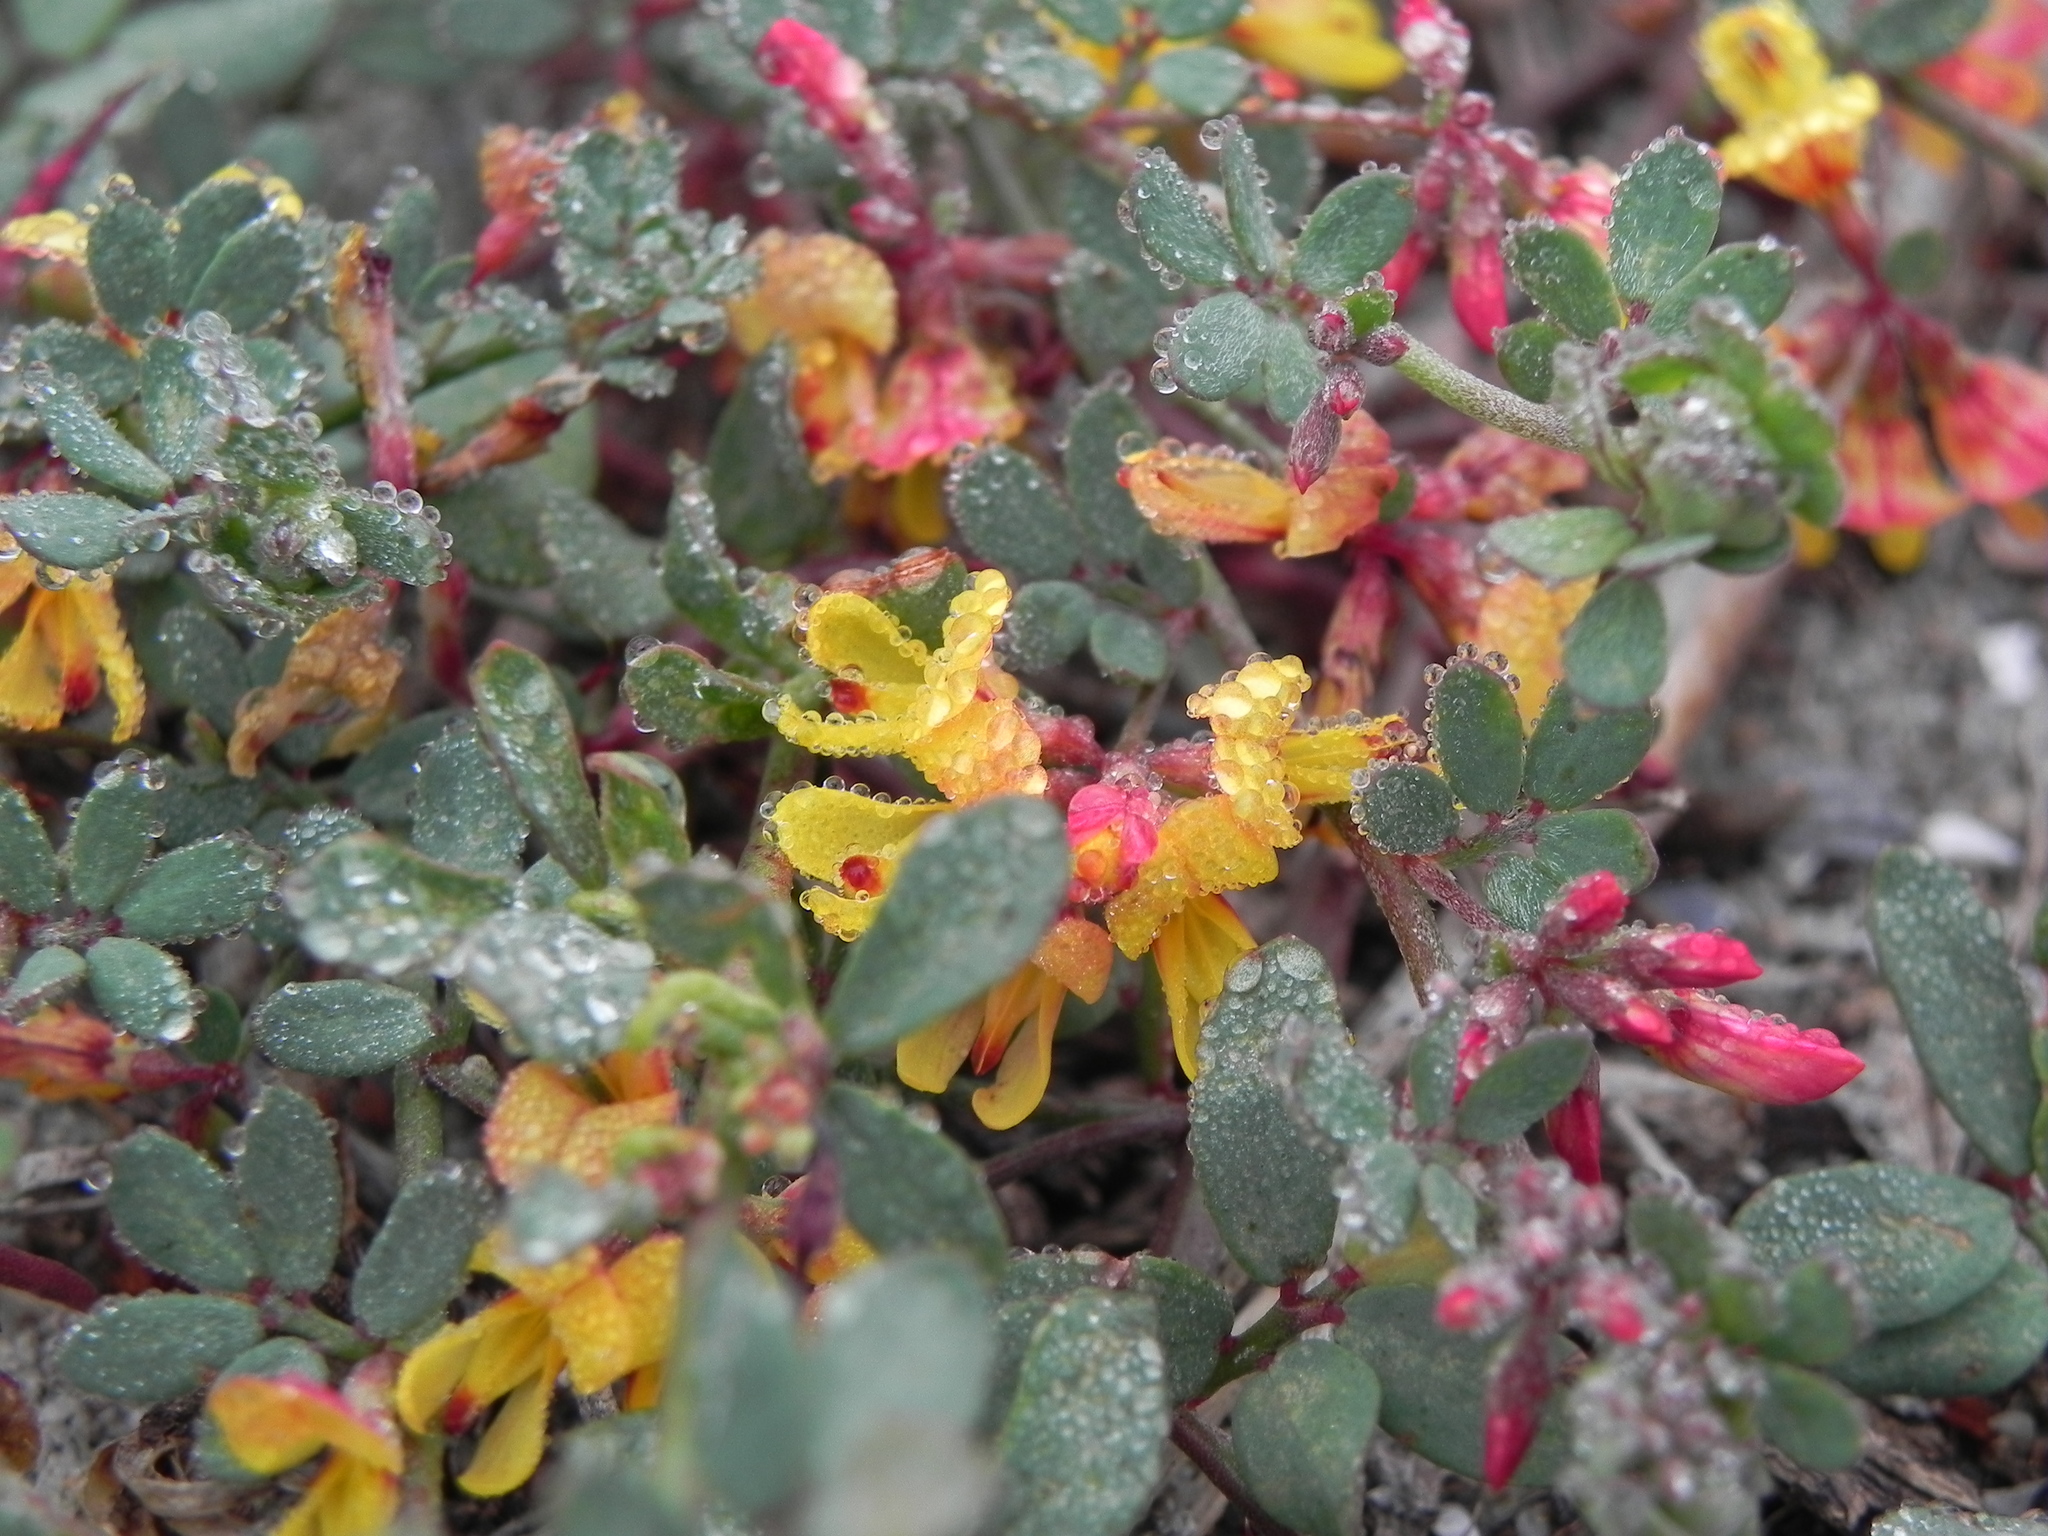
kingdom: Plantae
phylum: Tracheophyta
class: Magnoliopsida
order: Fabales
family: Fabaceae
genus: Acmispon
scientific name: Acmispon prostratus
